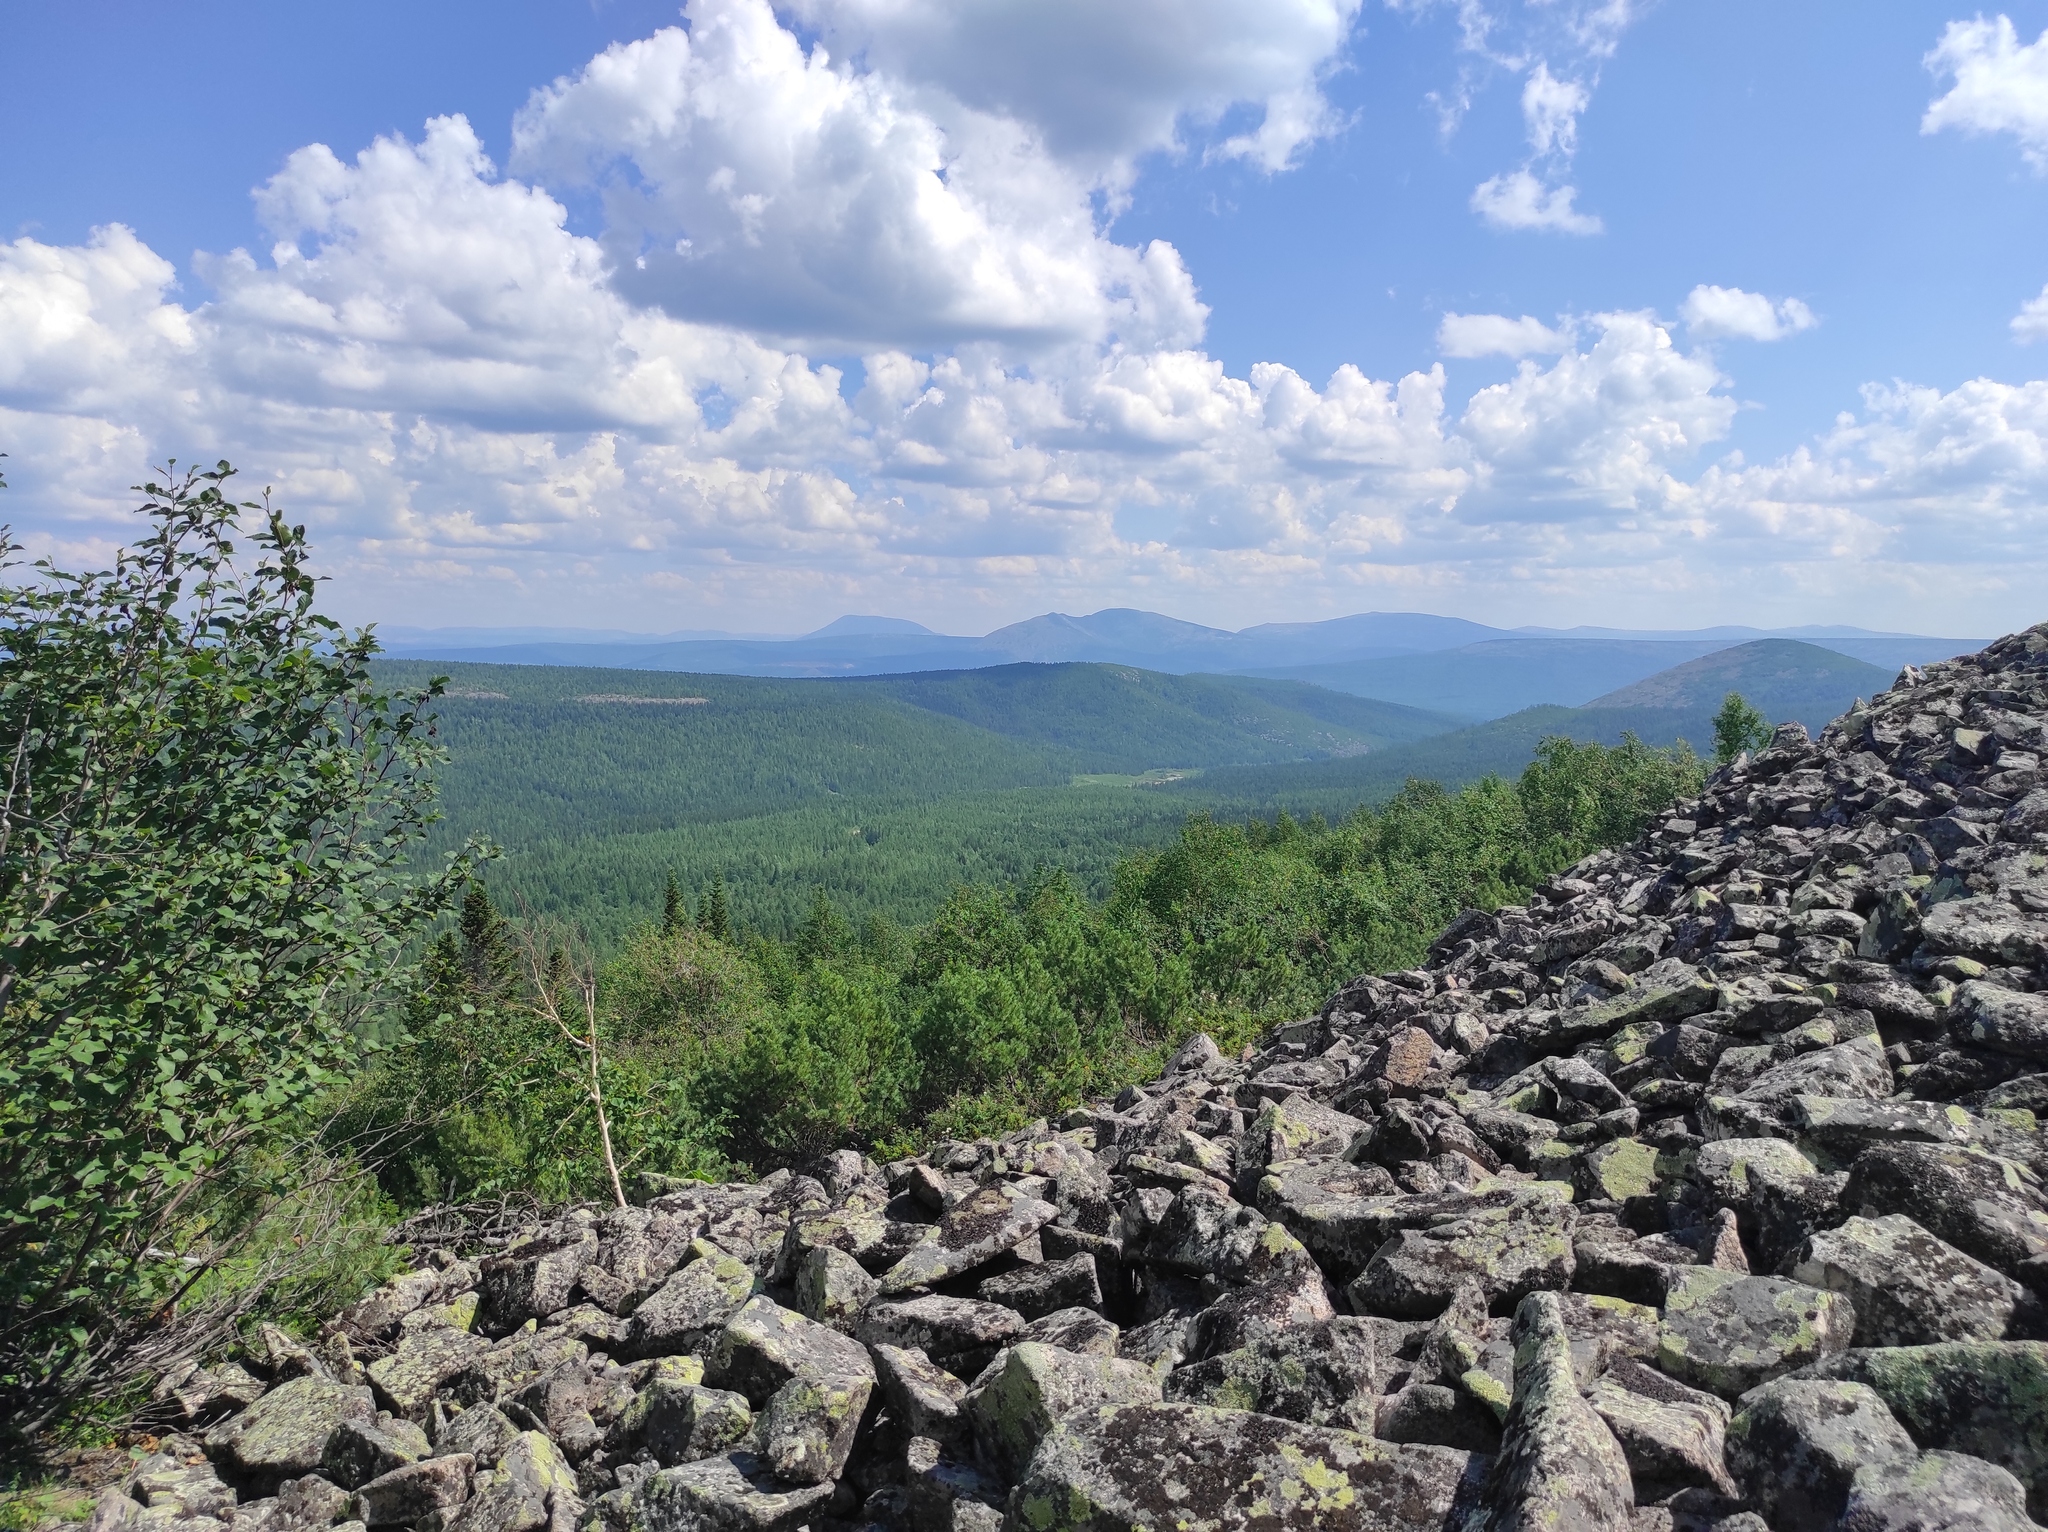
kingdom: Plantae
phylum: Tracheophyta
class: Pinopsida
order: Pinales
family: Pinaceae
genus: Pinus
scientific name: Pinus pumila
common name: Dwarf siberian pine
